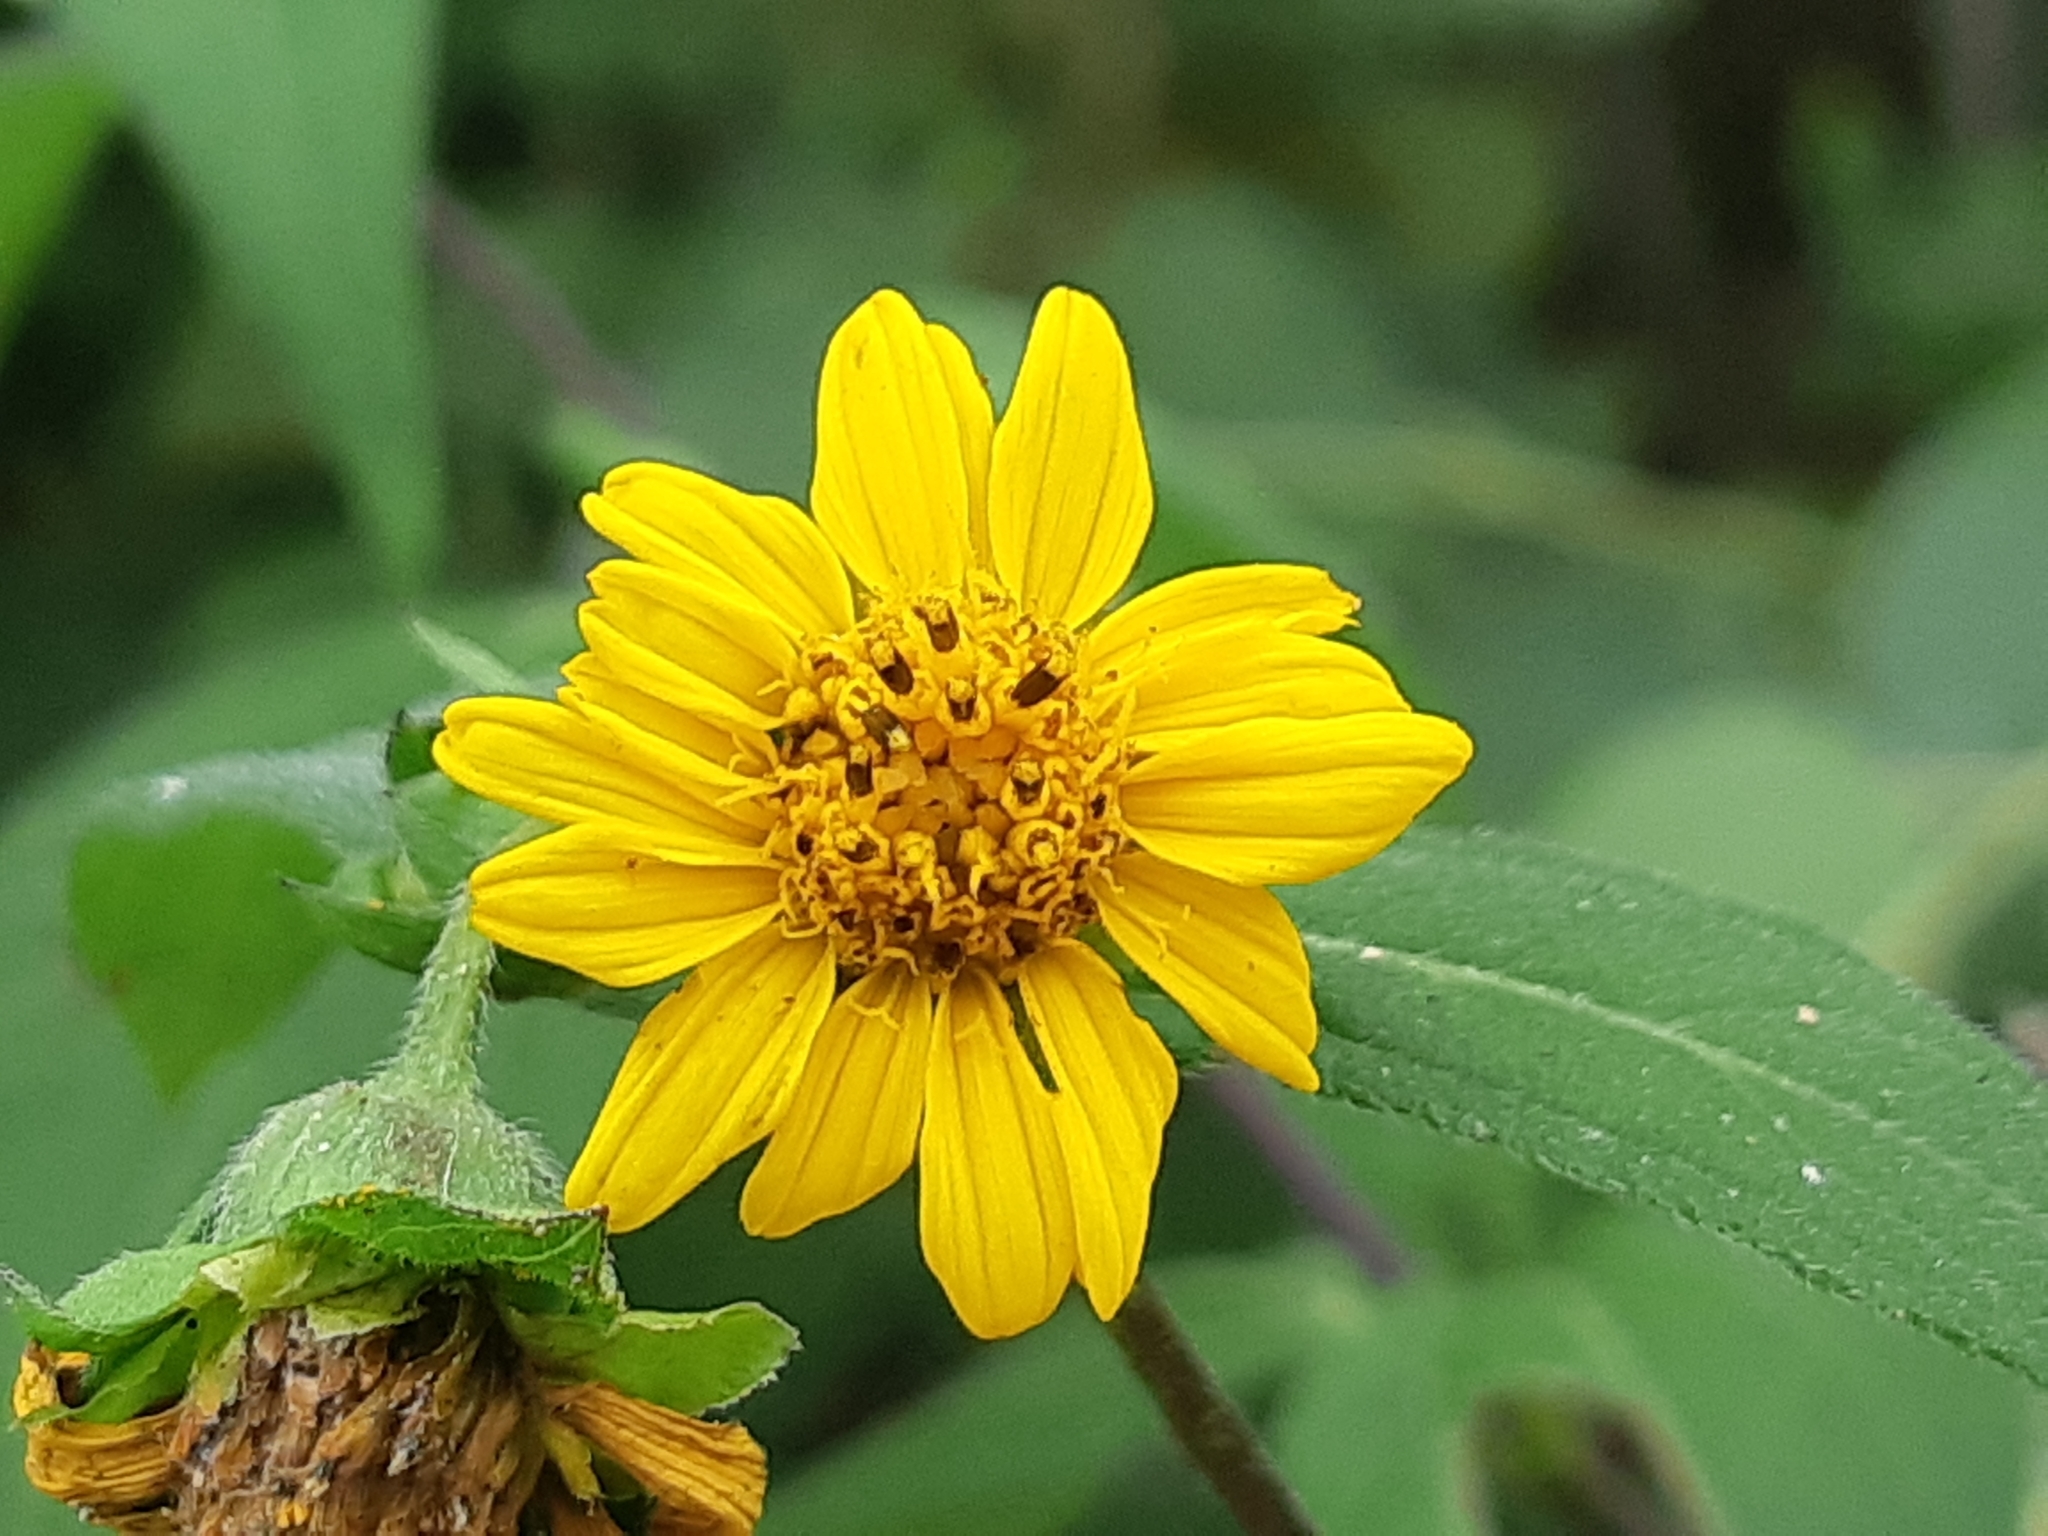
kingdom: Plantae
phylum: Tracheophyta
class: Magnoliopsida
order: Asterales
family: Asteraceae
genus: Wedelia
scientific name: Wedelia grandiflora
